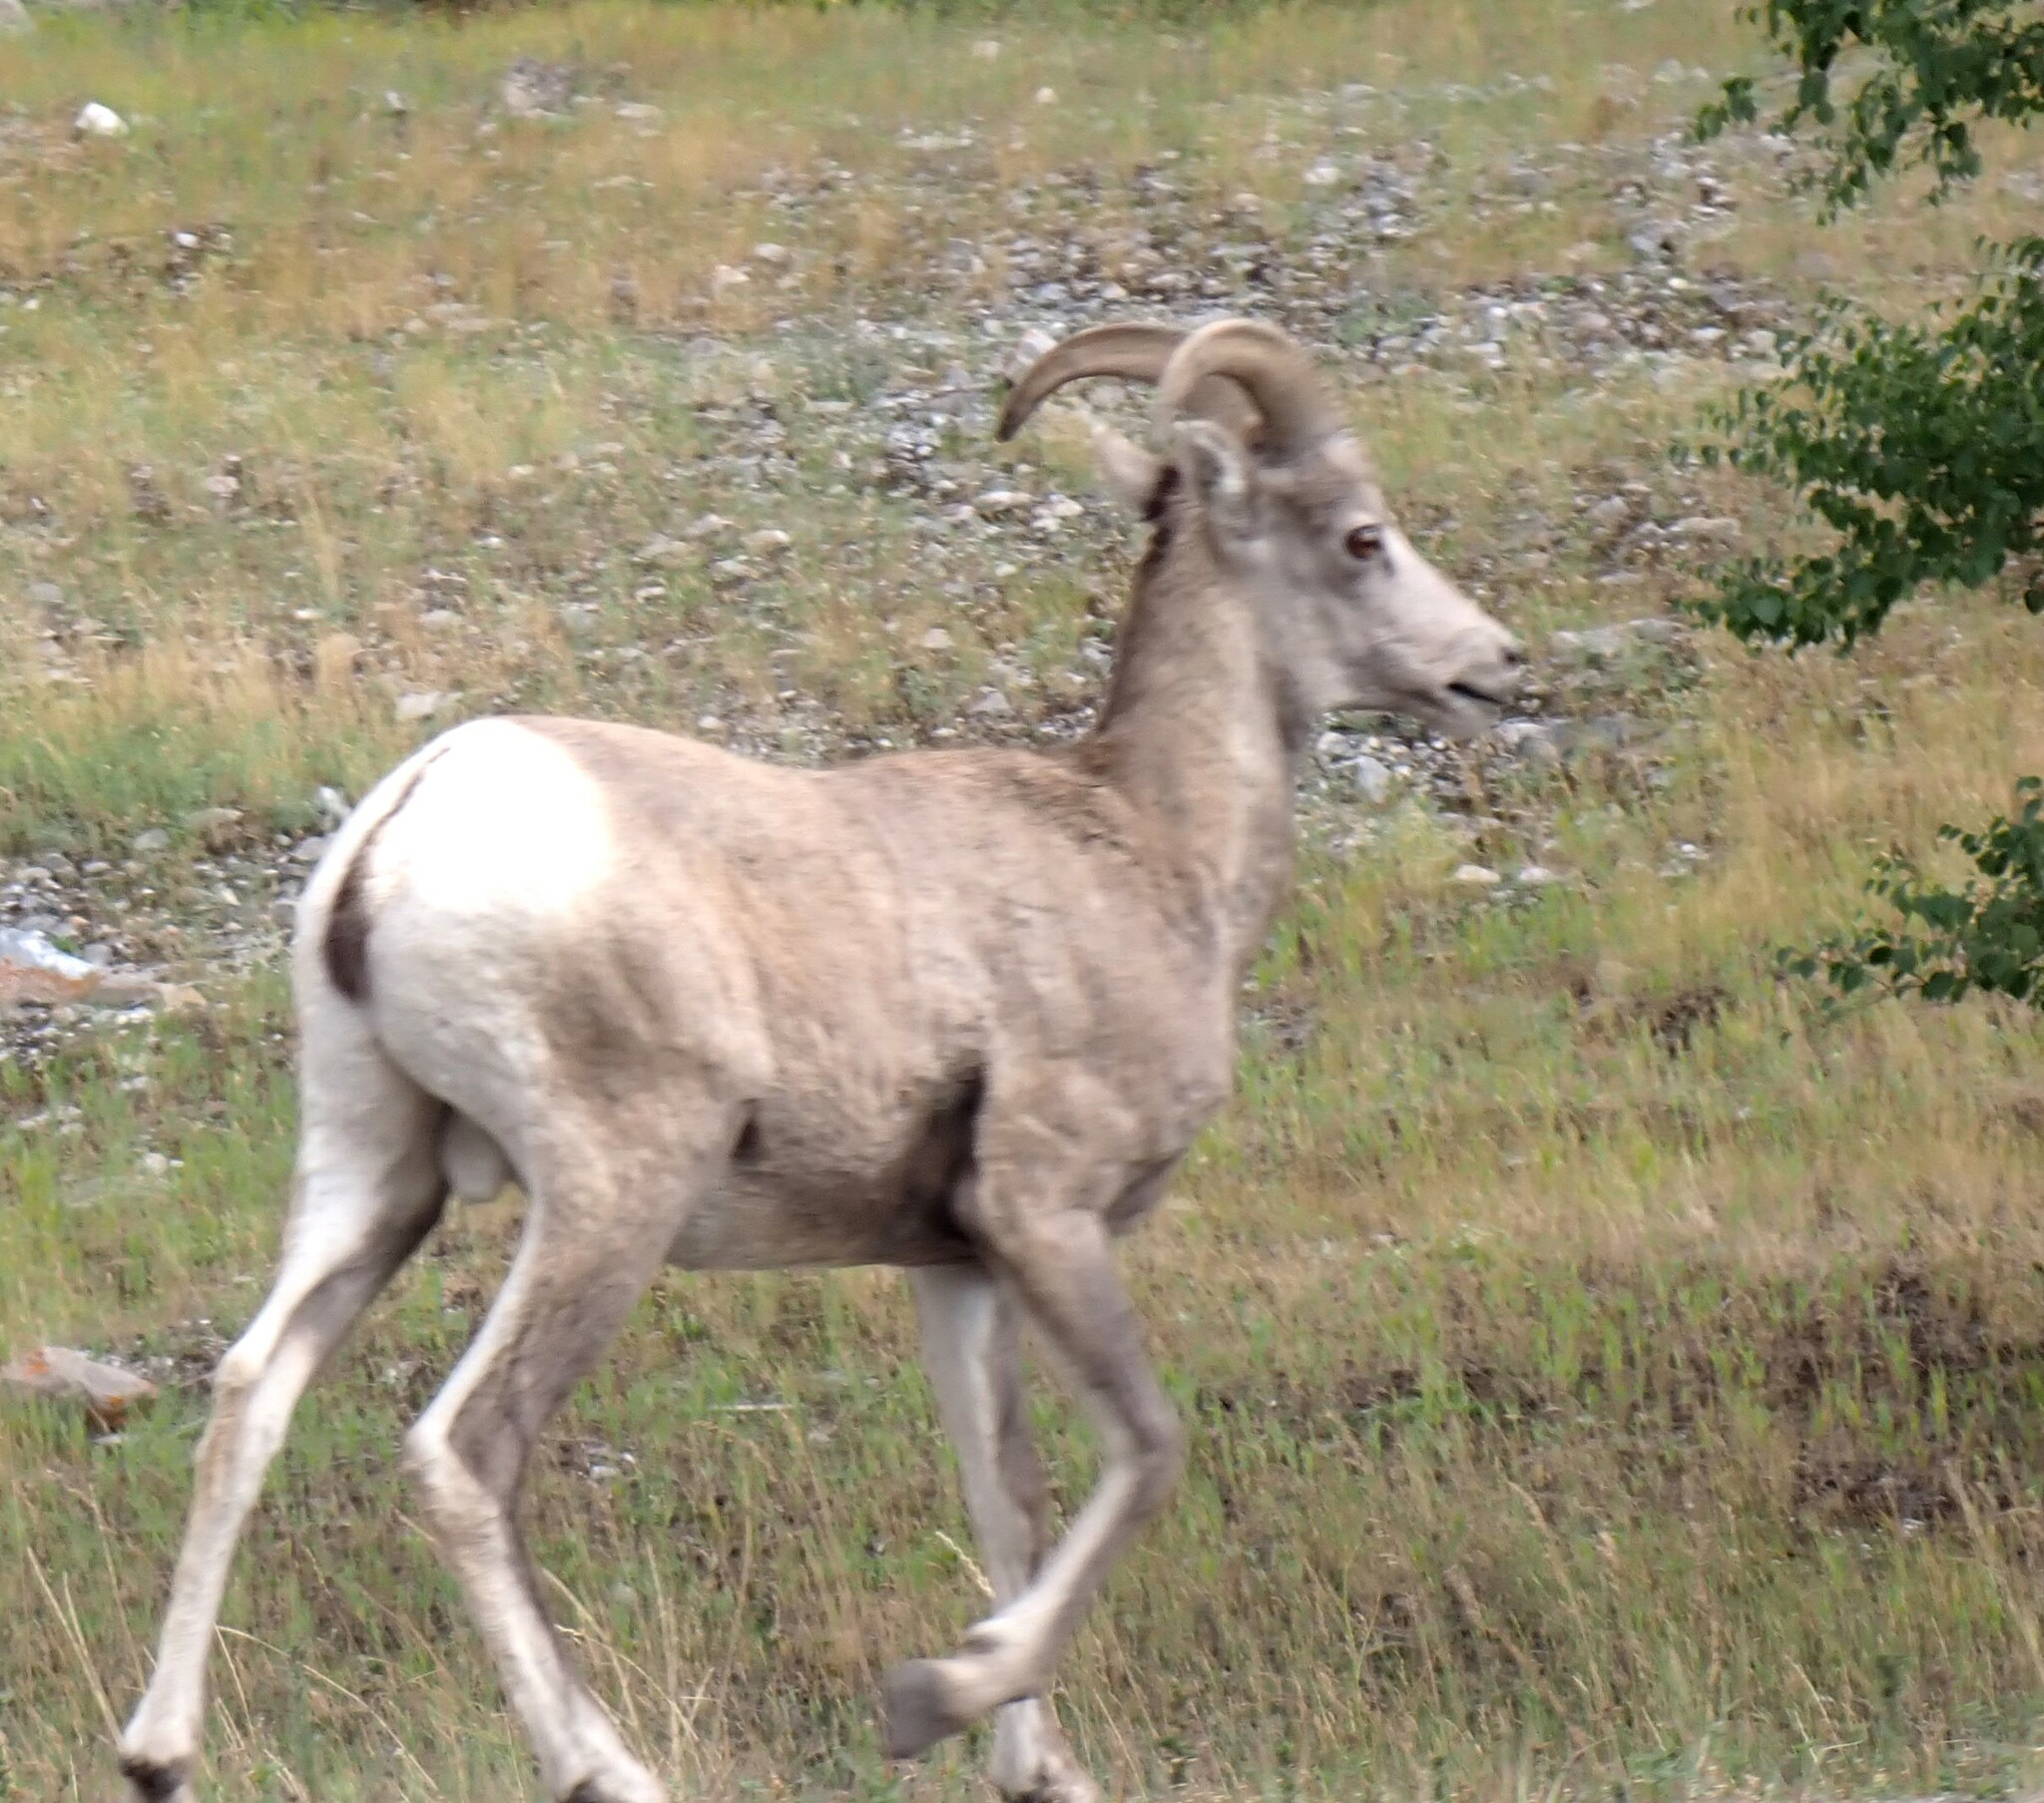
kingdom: Animalia
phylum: Chordata
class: Mammalia
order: Artiodactyla
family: Bovidae
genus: Ovis
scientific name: Ovis canadensis
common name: Bighorn sheep
